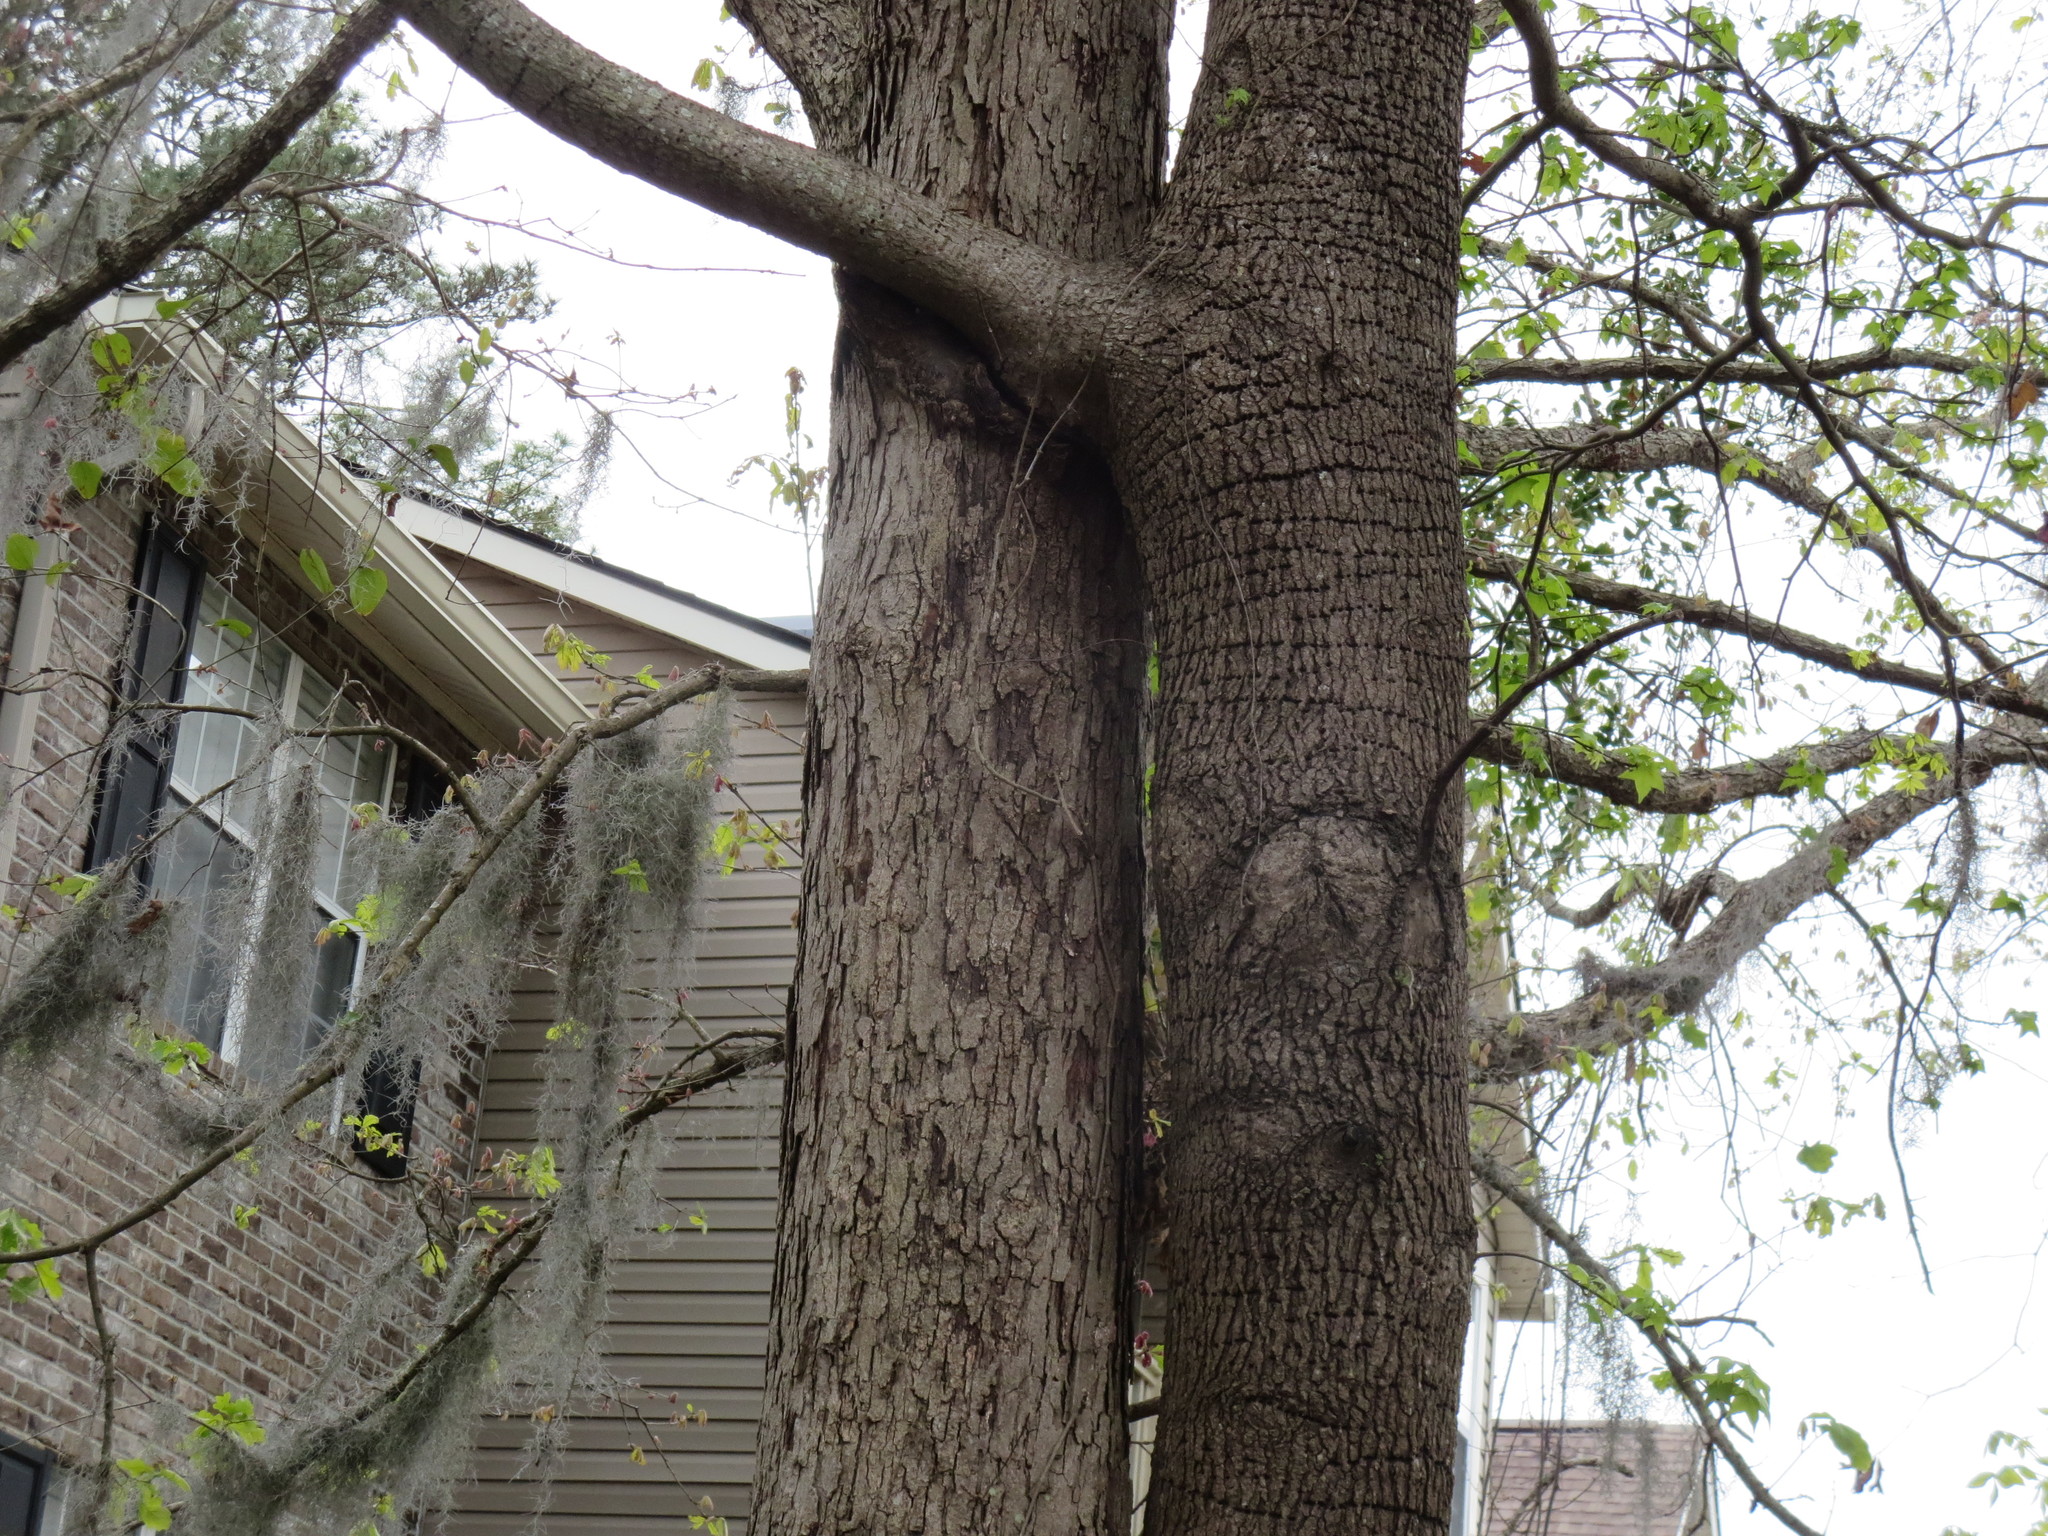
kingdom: Plantae
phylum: Tracheophyta
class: Magnoliopsida
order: Saxifragales
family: Altingiaceae
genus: Liquidambar
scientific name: Liquidambar styraciflua
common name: Sweet gum
